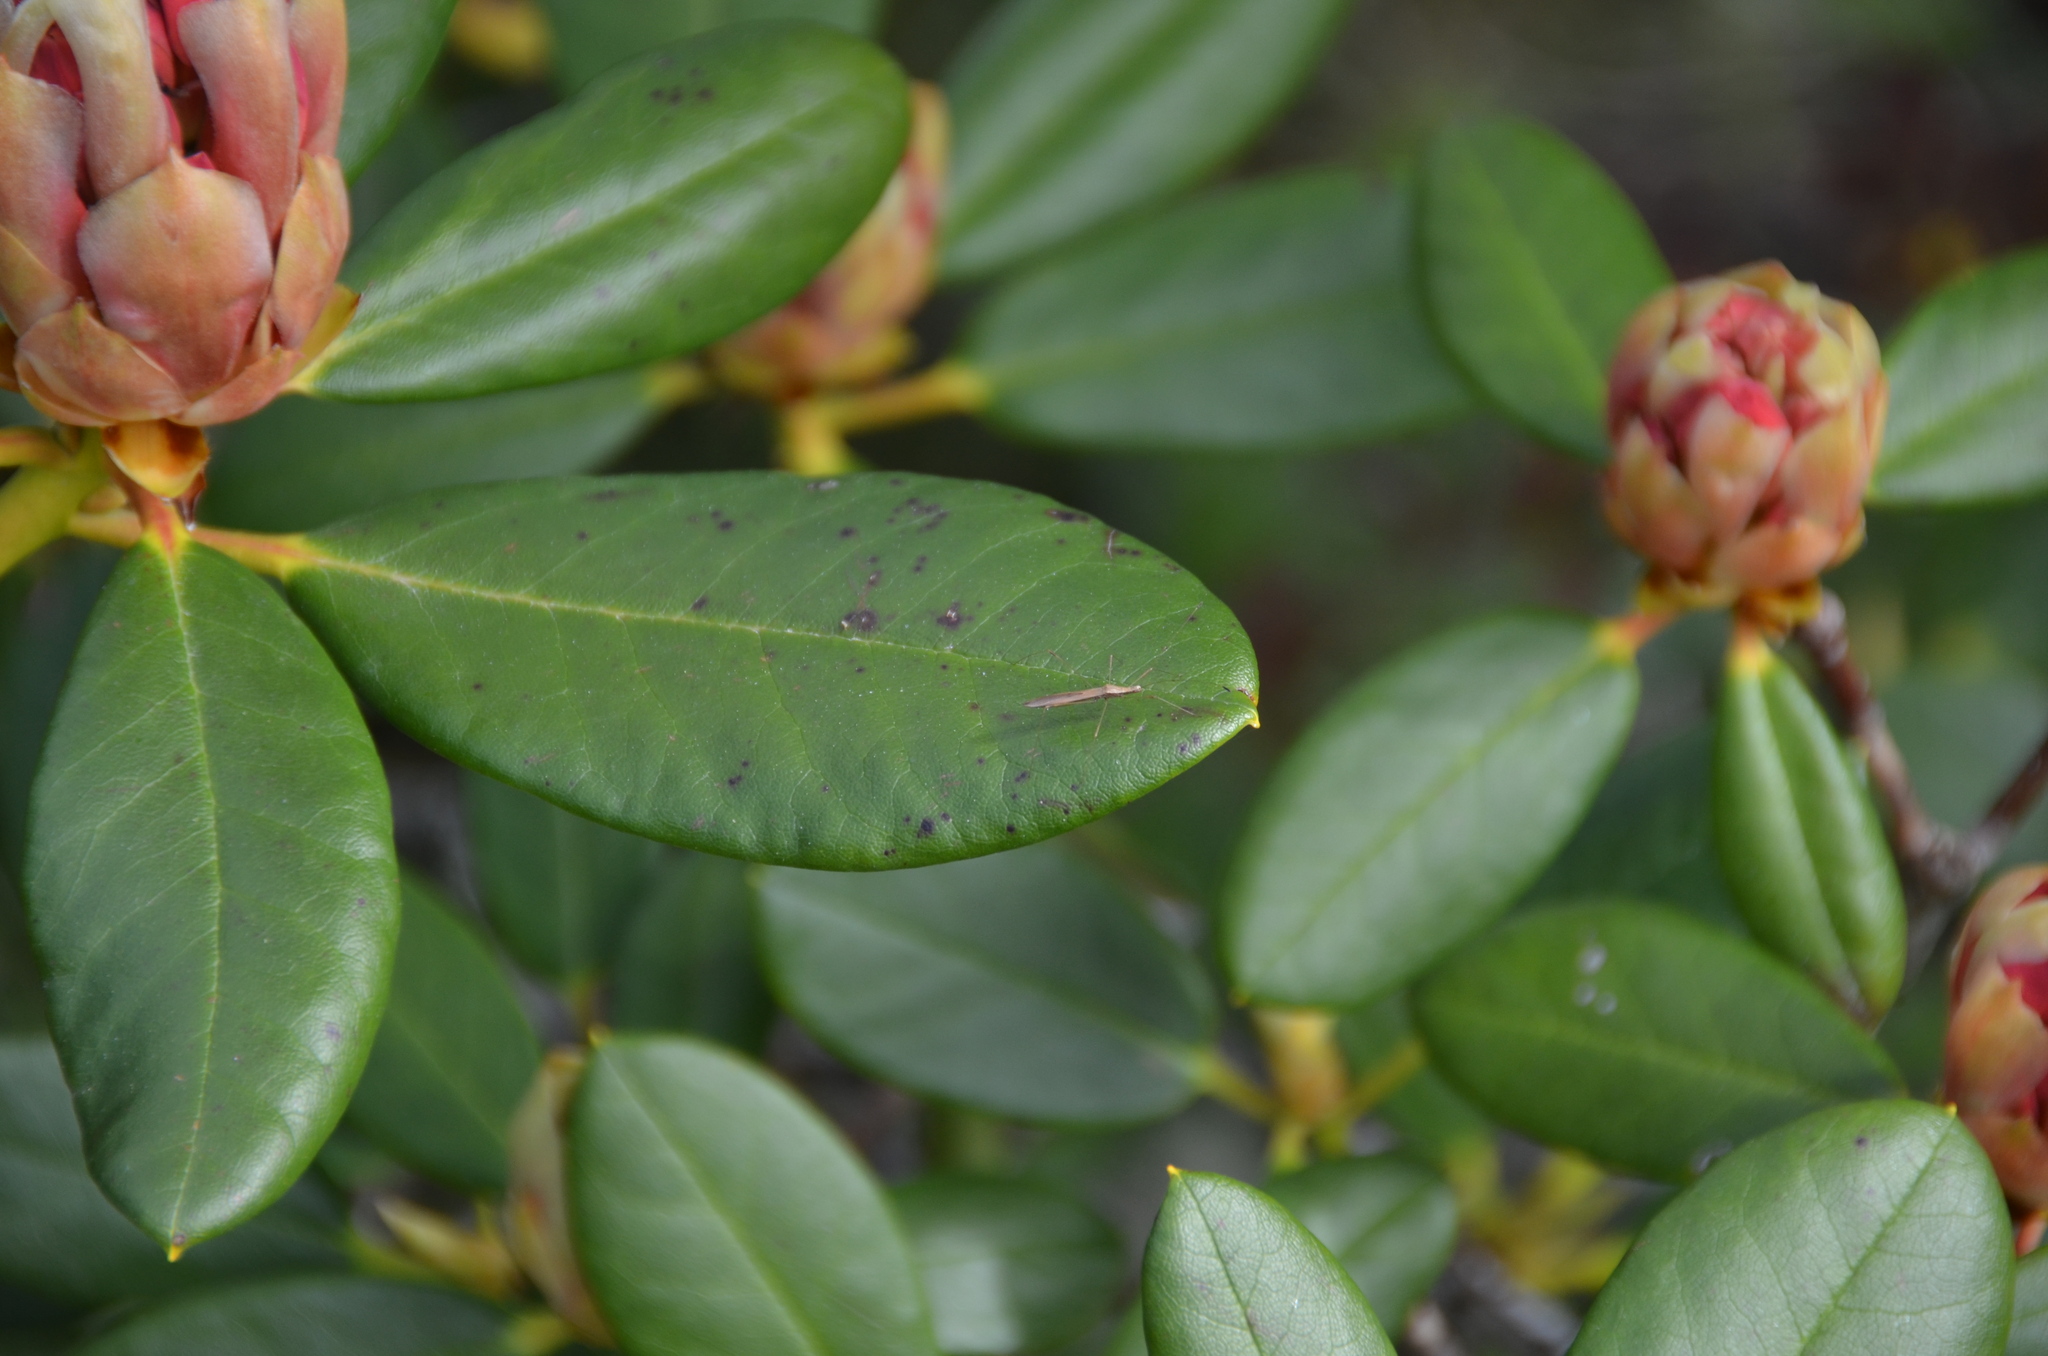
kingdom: Animalia
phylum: Arthropoda
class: Insecta
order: Hemiptera
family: Berytidae
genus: Neoneides
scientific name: Neoneides muticus
